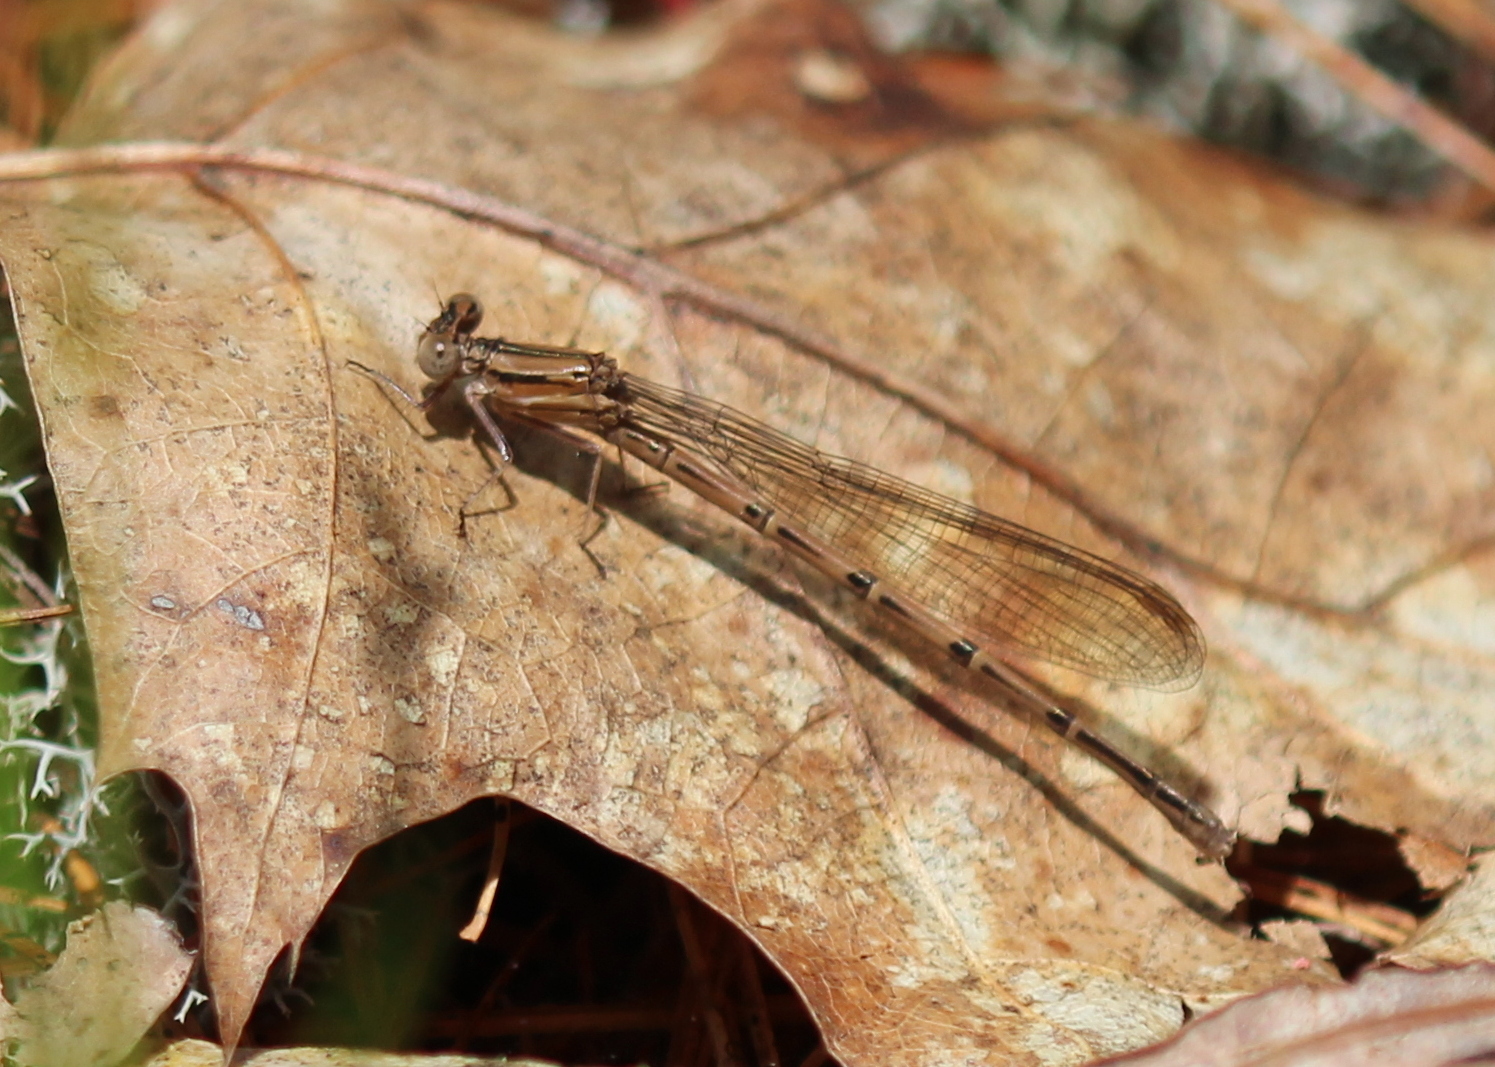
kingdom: Animalia
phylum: Arthropoda
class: Insecta
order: Odonata
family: Coenagrionidae
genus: Argia
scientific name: Argia fumipennis
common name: Variable dancer
